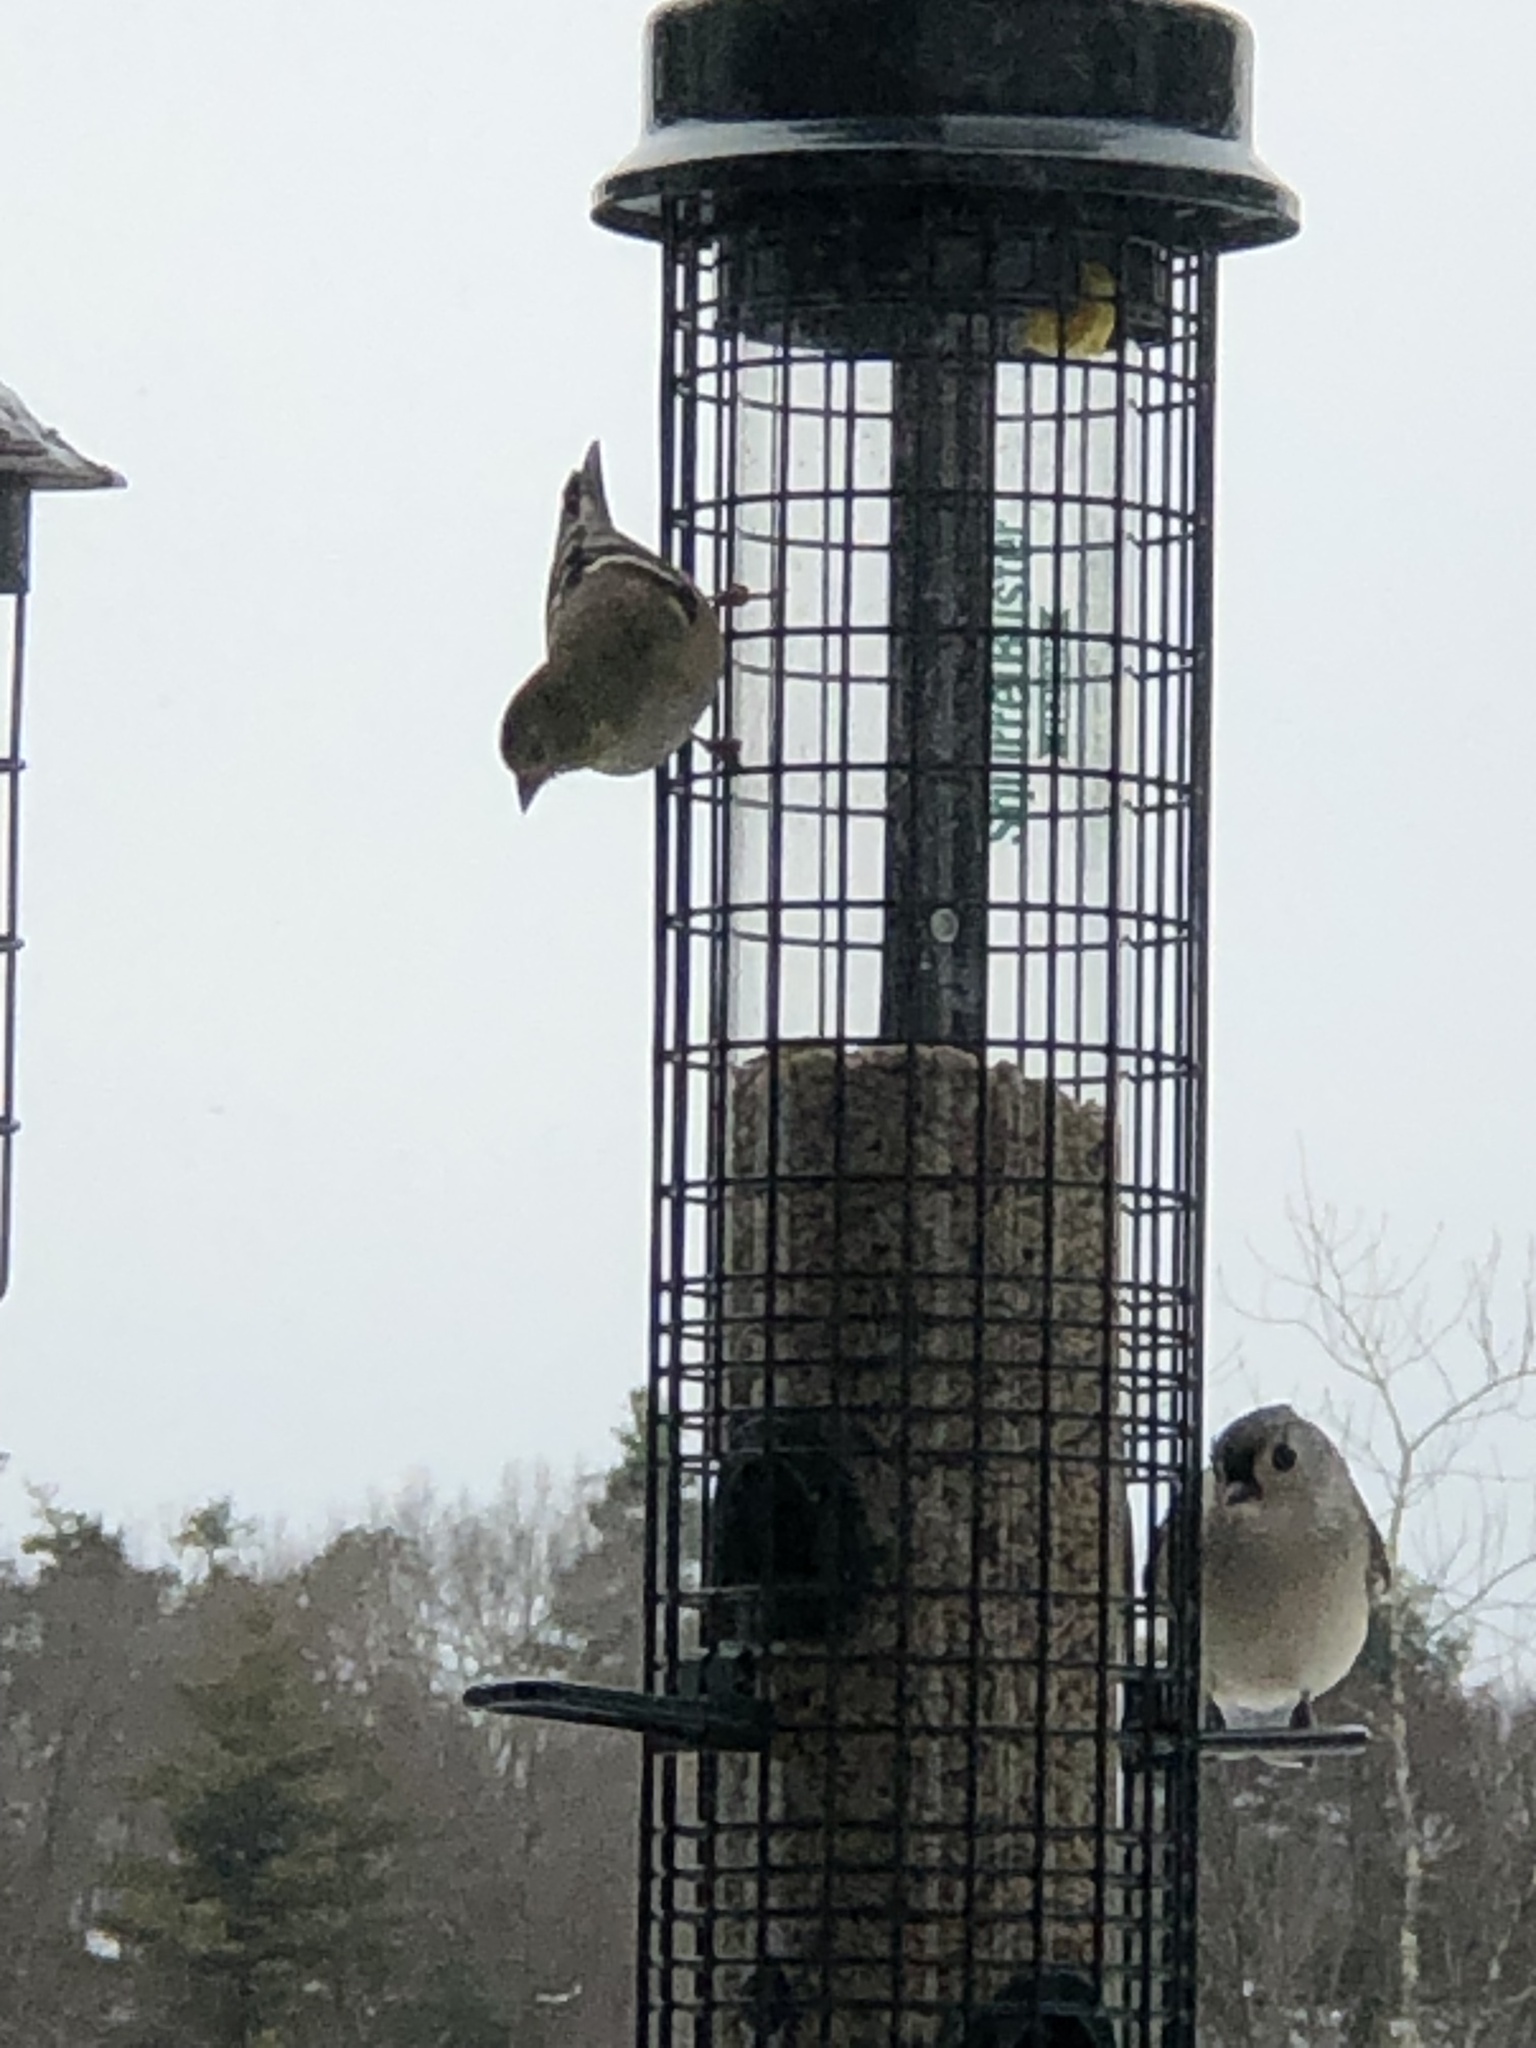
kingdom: Animalia
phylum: Chordata
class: Aves
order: Passeriformes
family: Fringillidae
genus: Spinus
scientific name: Spinus tristis
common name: American goldfinch
